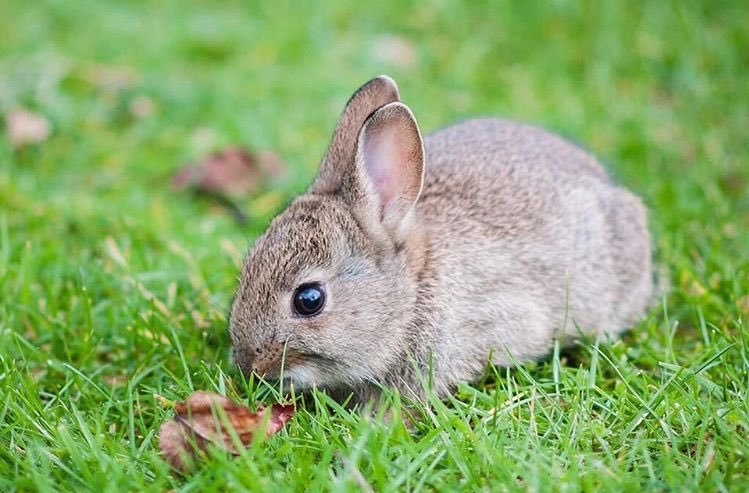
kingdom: Animalia
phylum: Chordata
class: Mammalia
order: Lagomorpha
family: Leporidae
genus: Oryctolagus
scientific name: Oryctolagus cuniculus
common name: European rabbit
